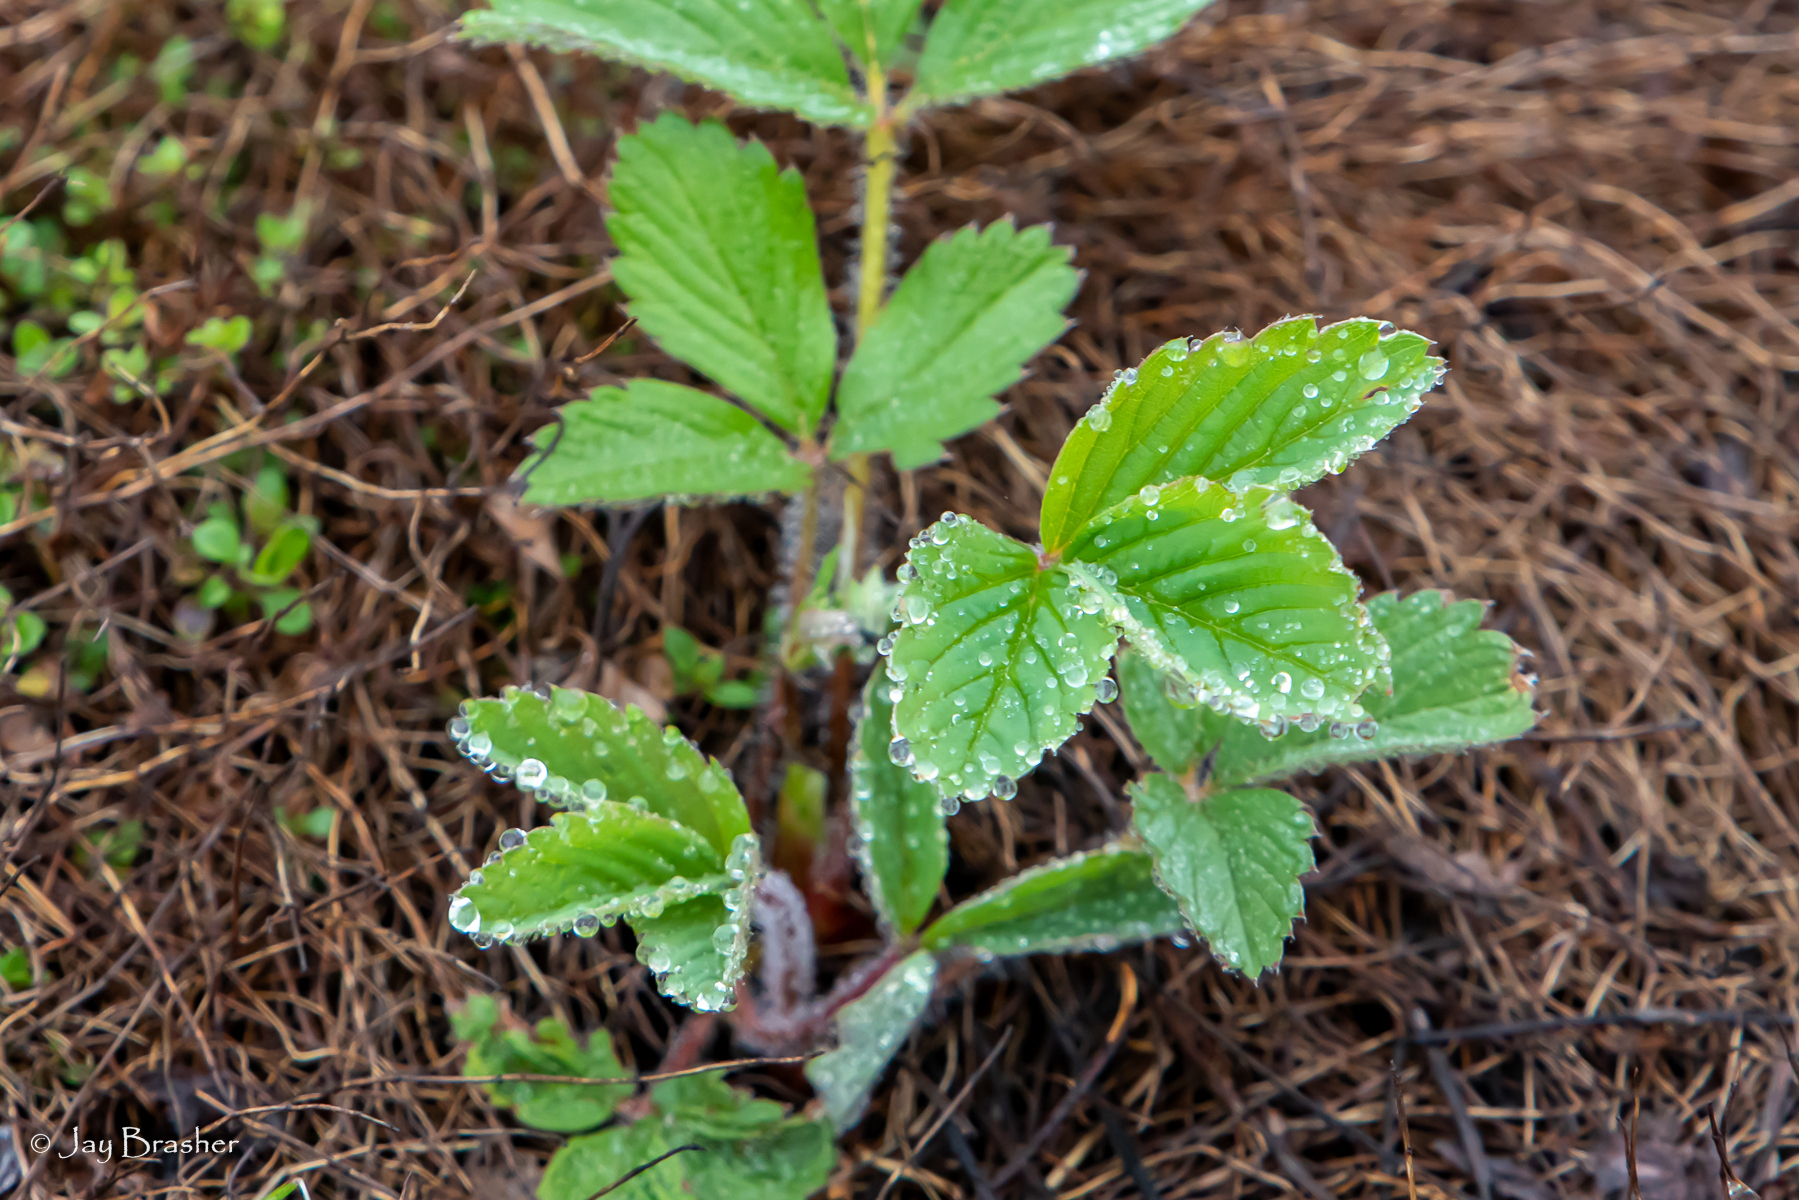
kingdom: Plantae
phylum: Tracheophyta
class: Magnoliopsida
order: Rosales
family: Rosaceae
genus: Fragaria
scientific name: Fragaria virginiana
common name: Thickleaved wild strawberry
